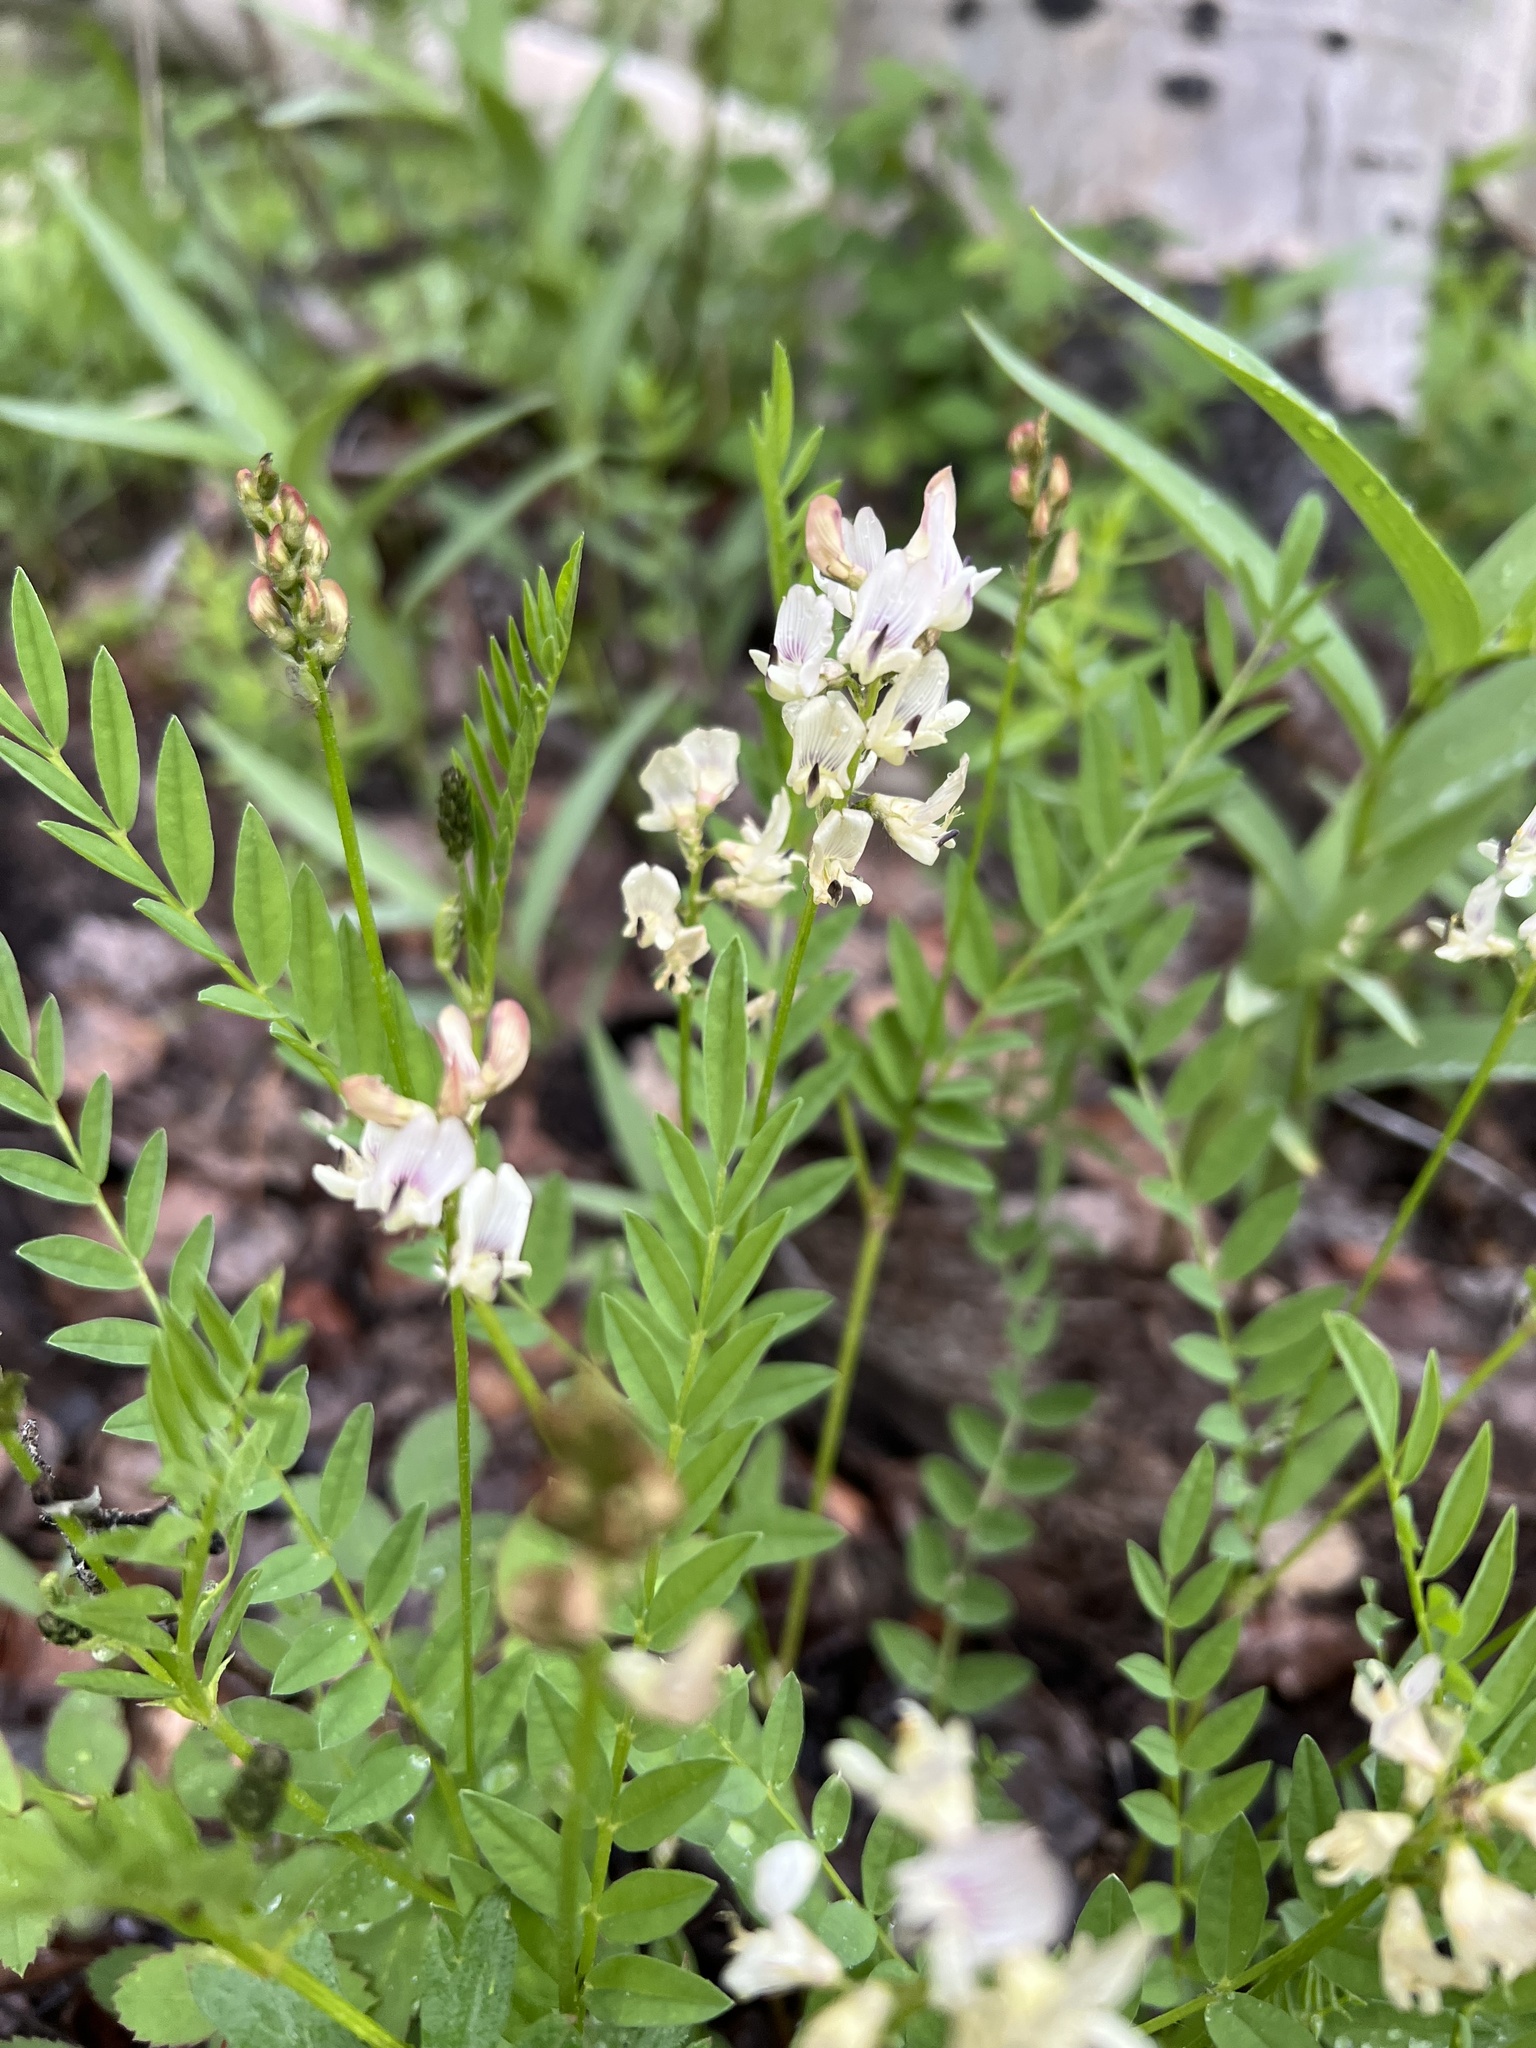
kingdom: Plantae
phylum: Tracheophyta
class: Magnoliopsida
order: Fabales
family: Fabaceae
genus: Astragalus
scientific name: Astragalus miser
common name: Timber milkvetch
